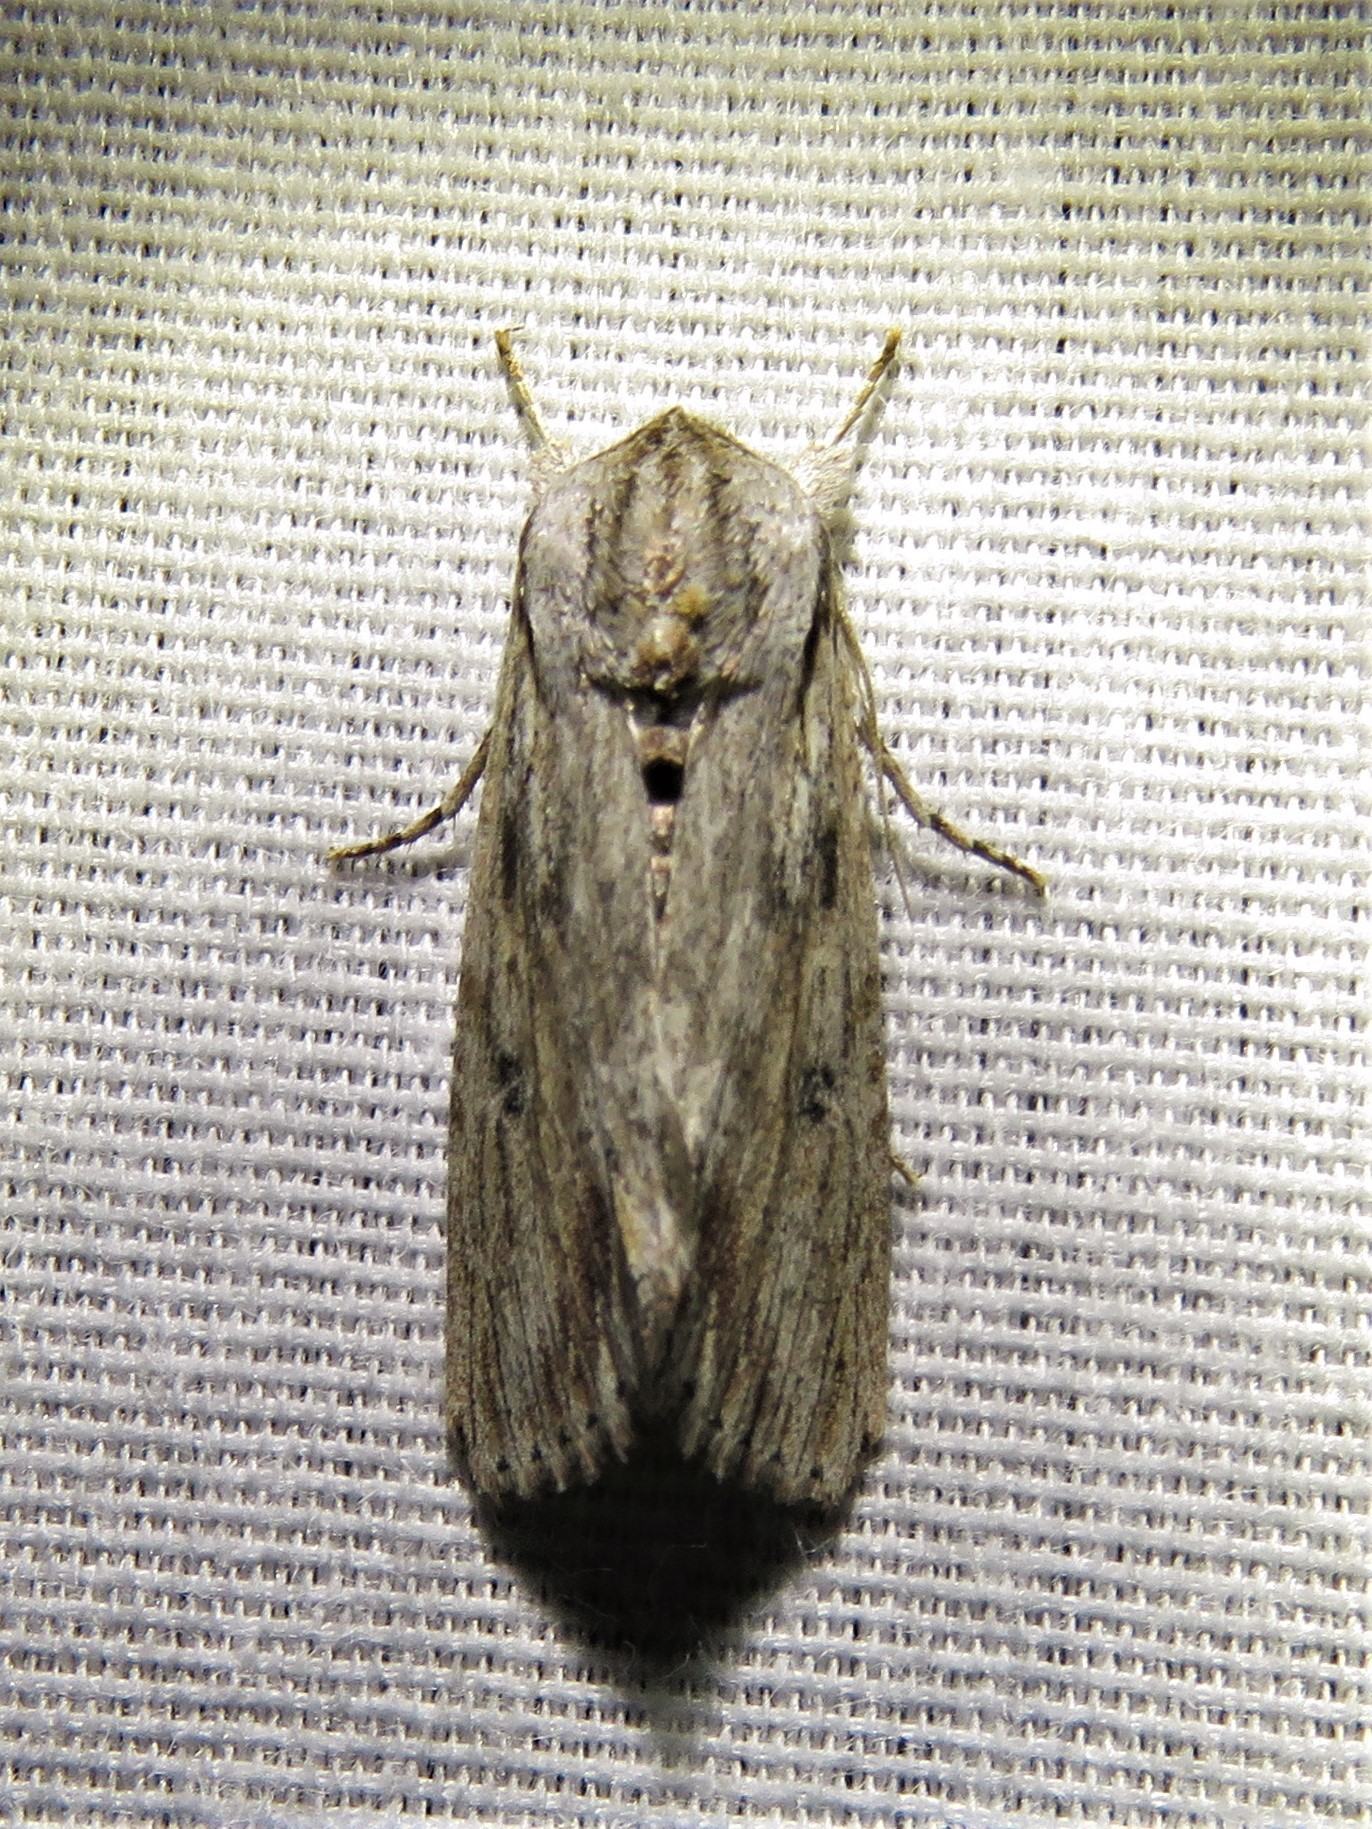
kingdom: Animalia
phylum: Arthropoda
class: Insecta
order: Lepidoptera
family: Noctuidae
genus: Spodoptera
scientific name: Spodoptera albula
